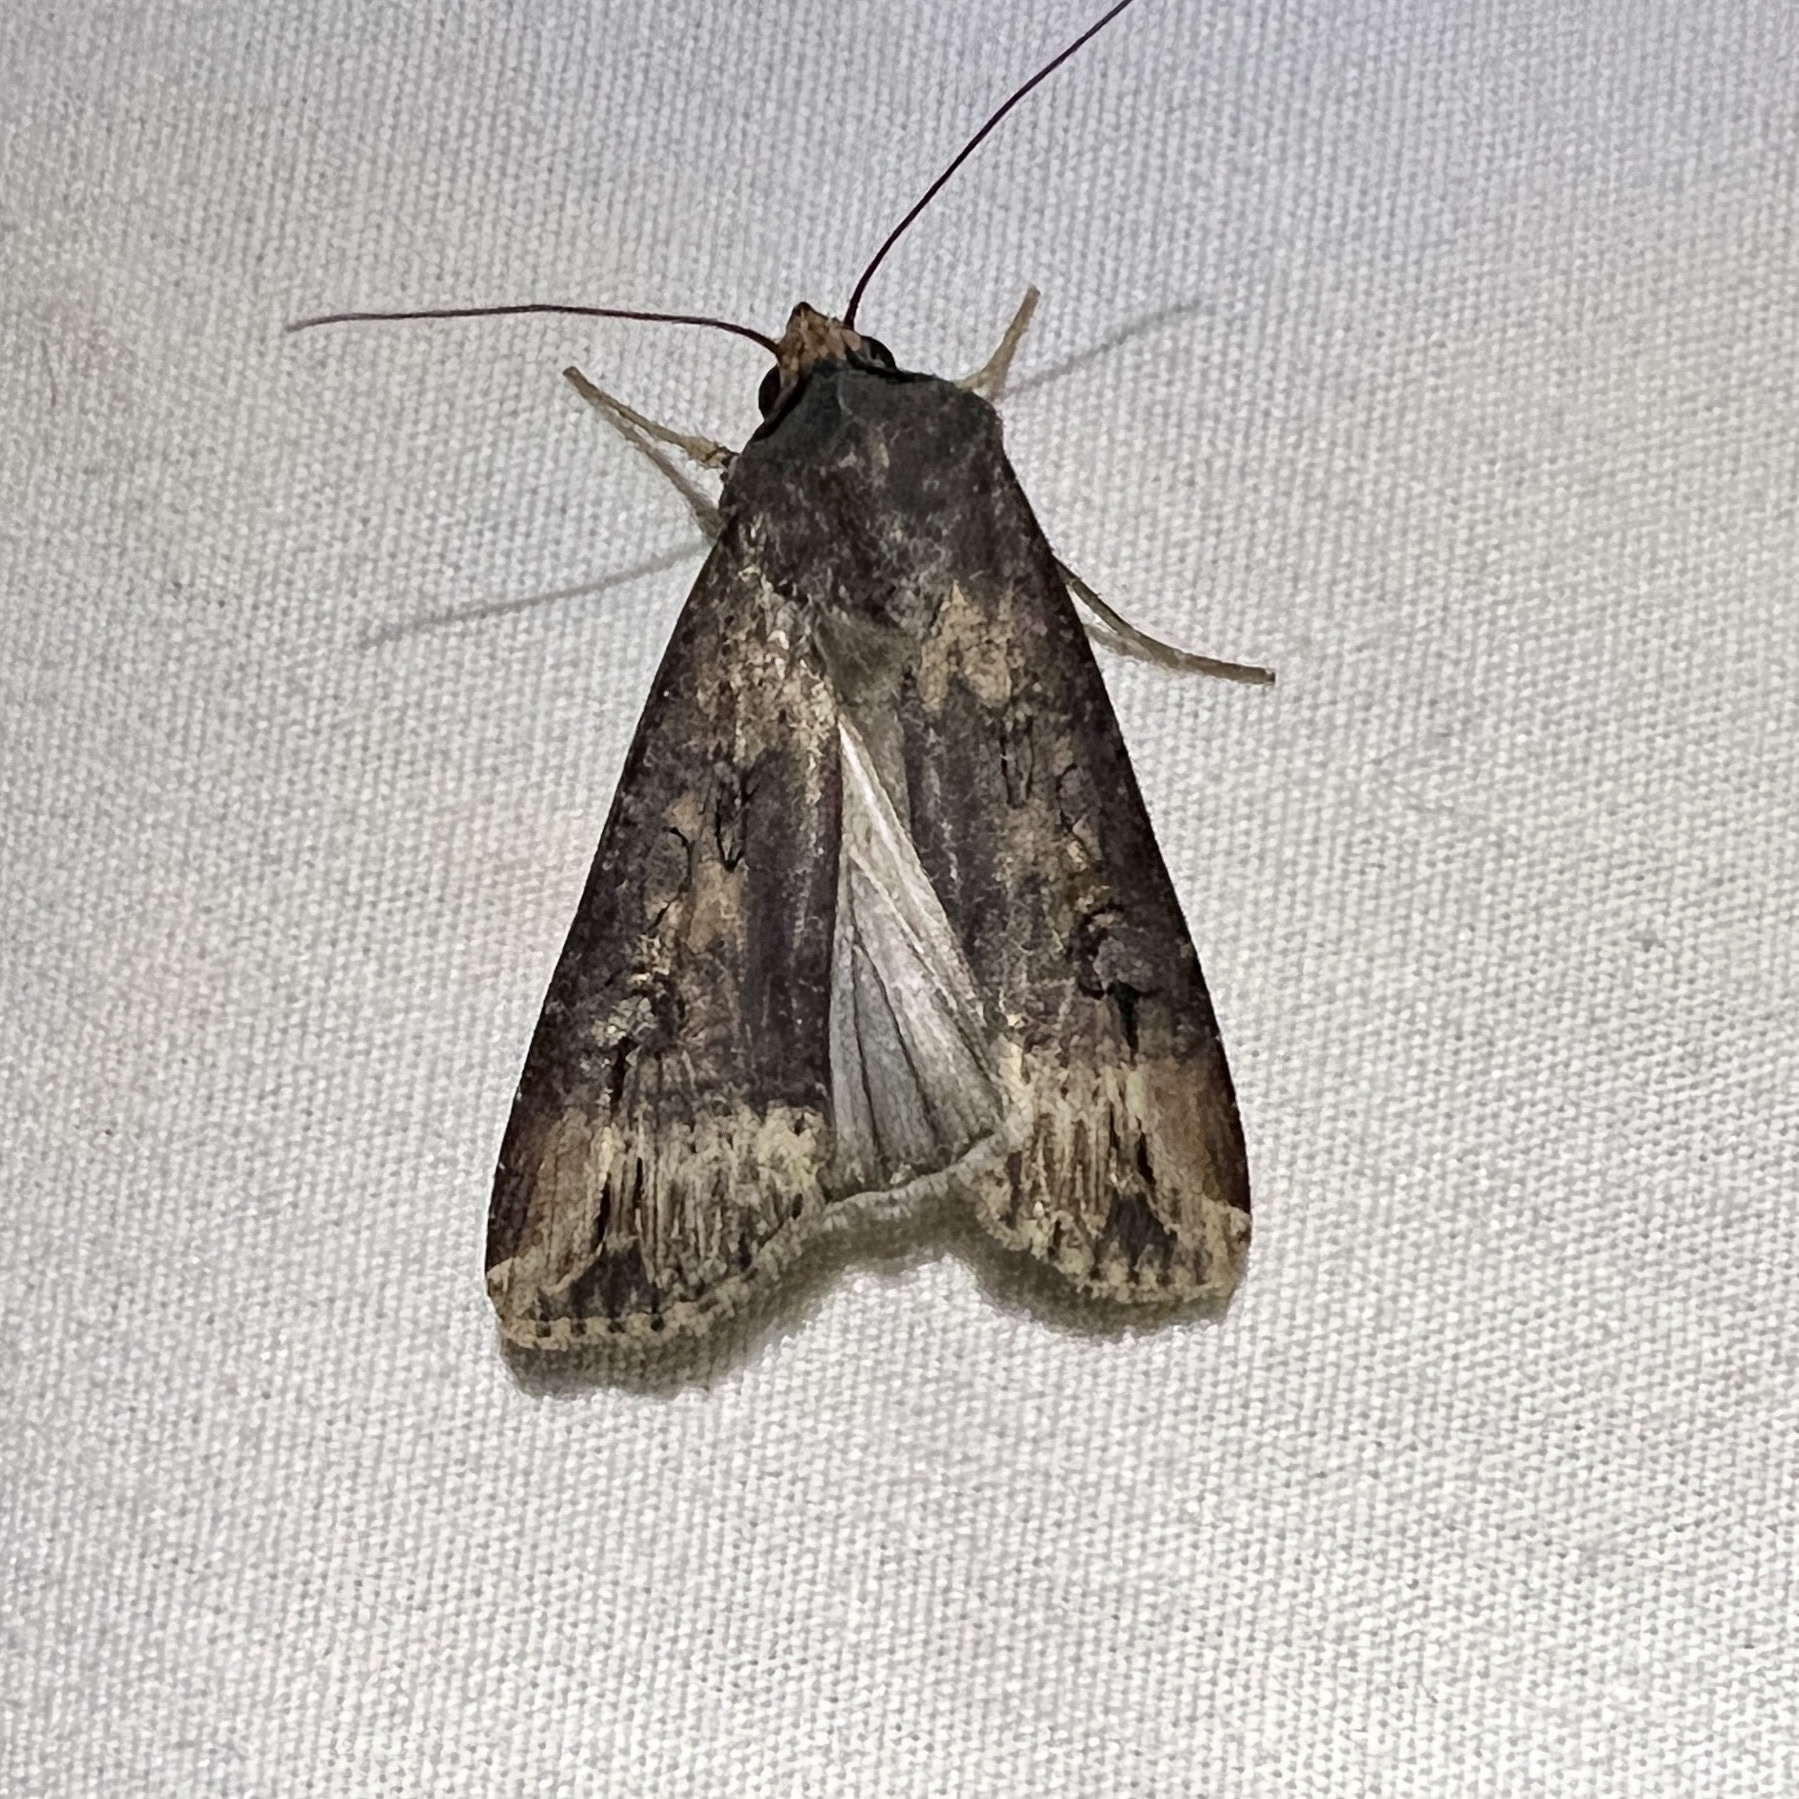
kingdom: Animalia
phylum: Arthropoda
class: Insecta
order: Lepidoptera
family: Noctuidae
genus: Agrotis
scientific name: Agrotis ipsilon
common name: Dark sword-grass
